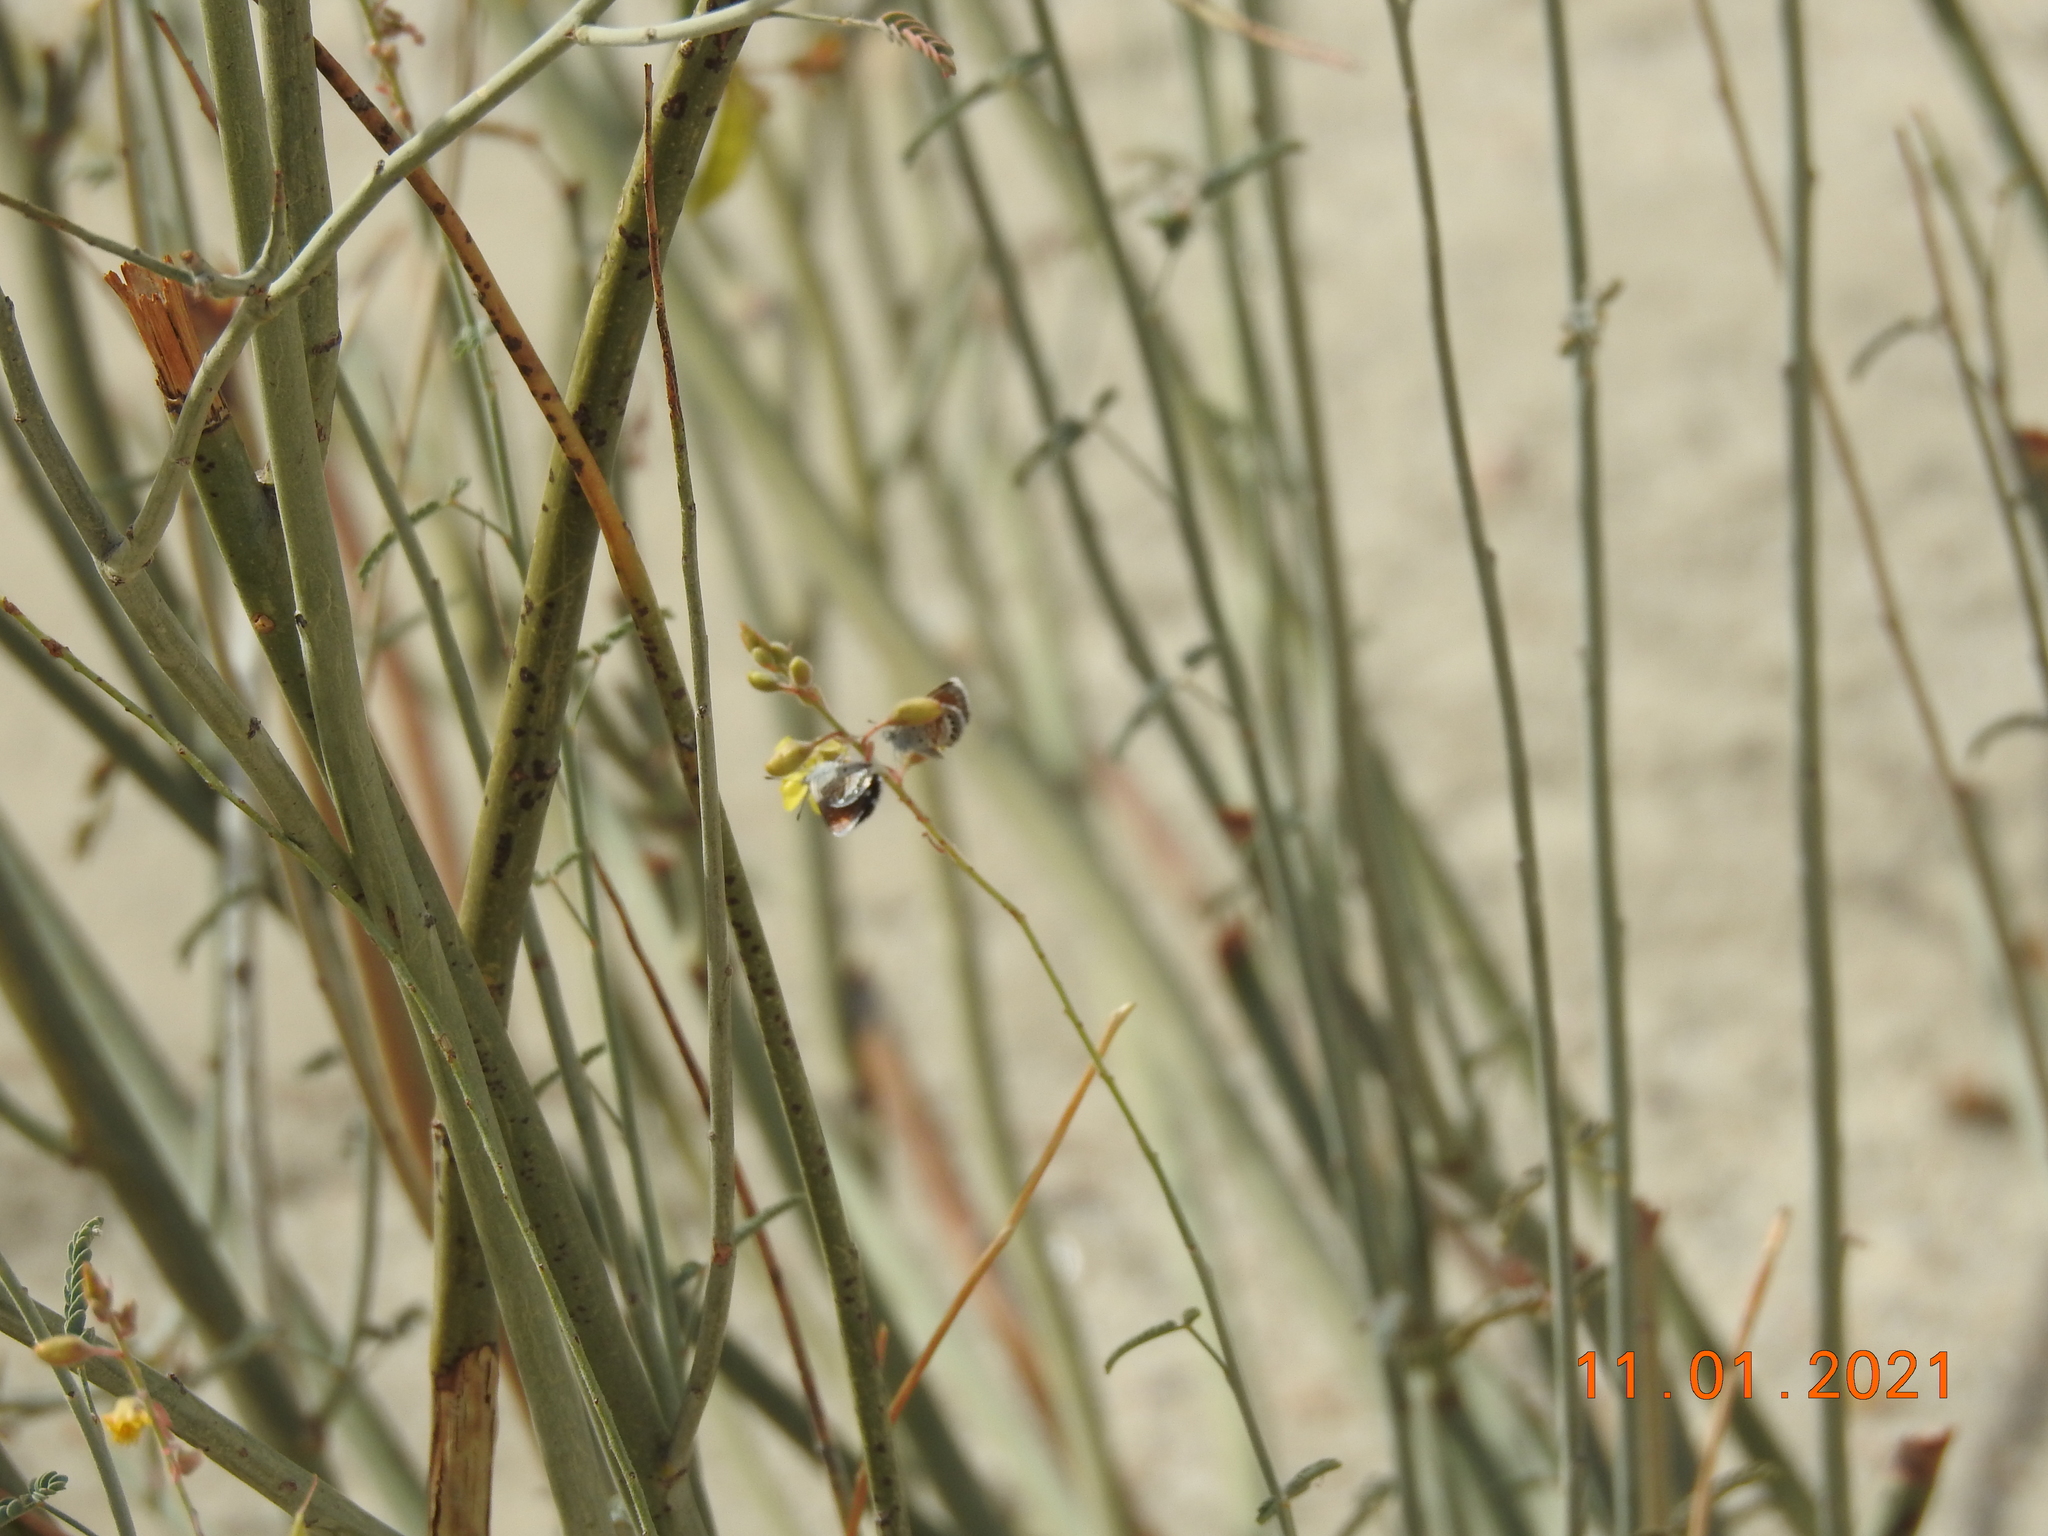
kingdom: Animalia
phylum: Arthropoda
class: Insecta
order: Lepidoptera
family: Lycaenidae
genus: Brephidium
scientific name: Brephidium exilis
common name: Pygmy blue
